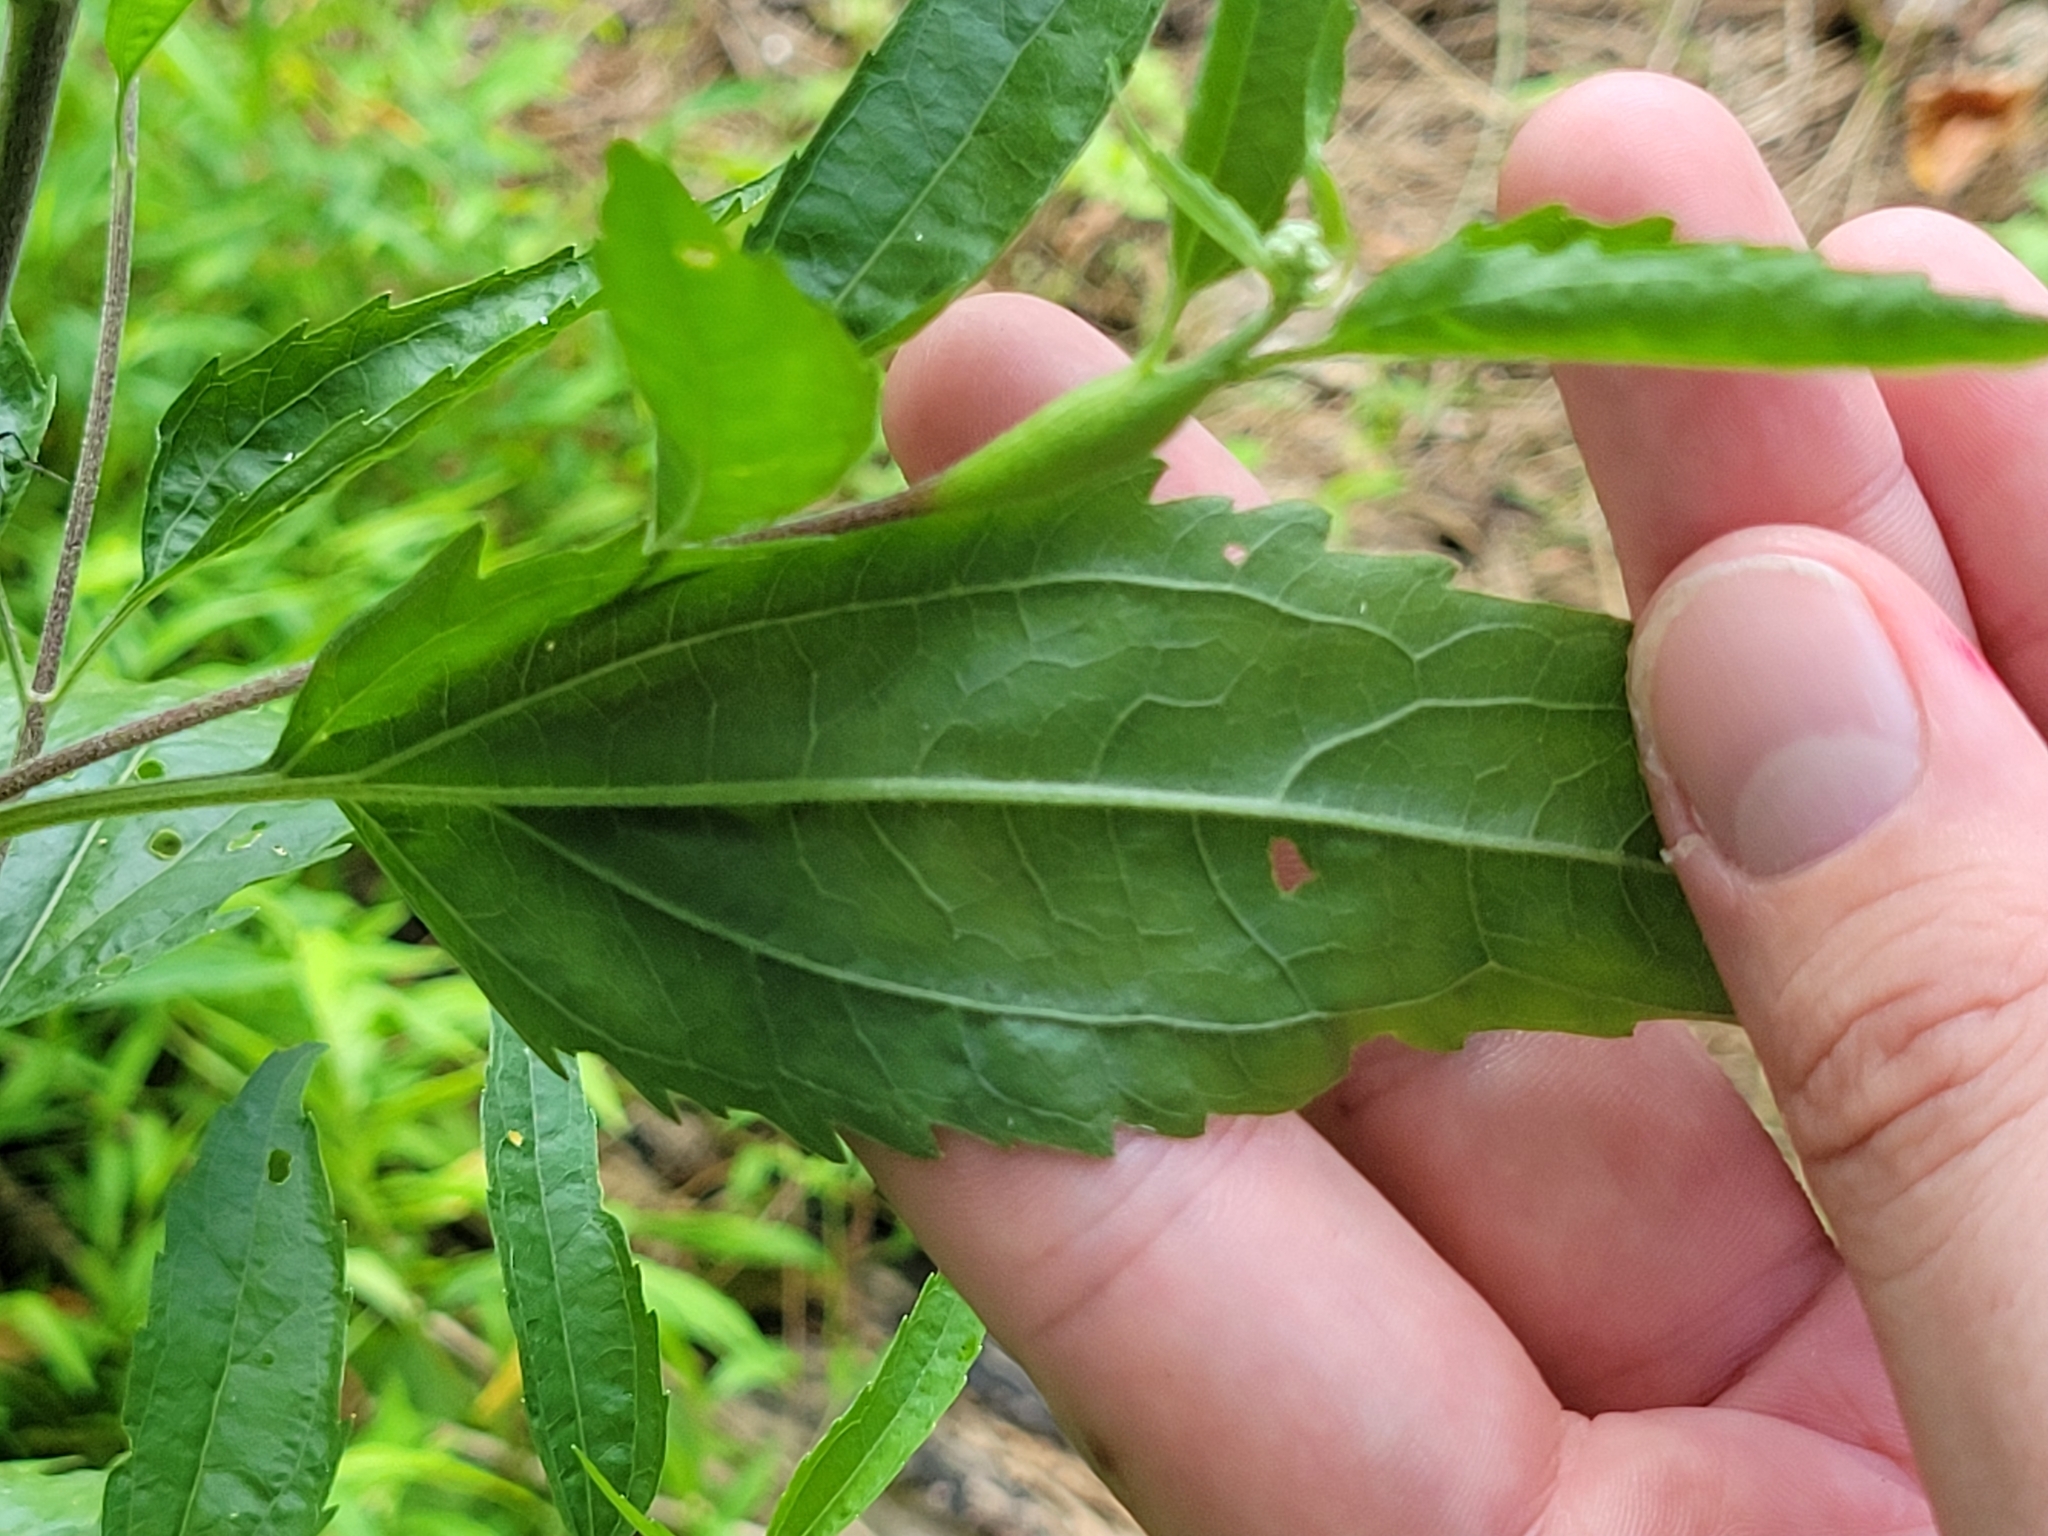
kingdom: Plantae
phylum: Tracheophyta
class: Magnoliopsida
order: Asterales
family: Asteraceae
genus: Eupatorium
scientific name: Eupatorium serotinum
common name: Late boneset
